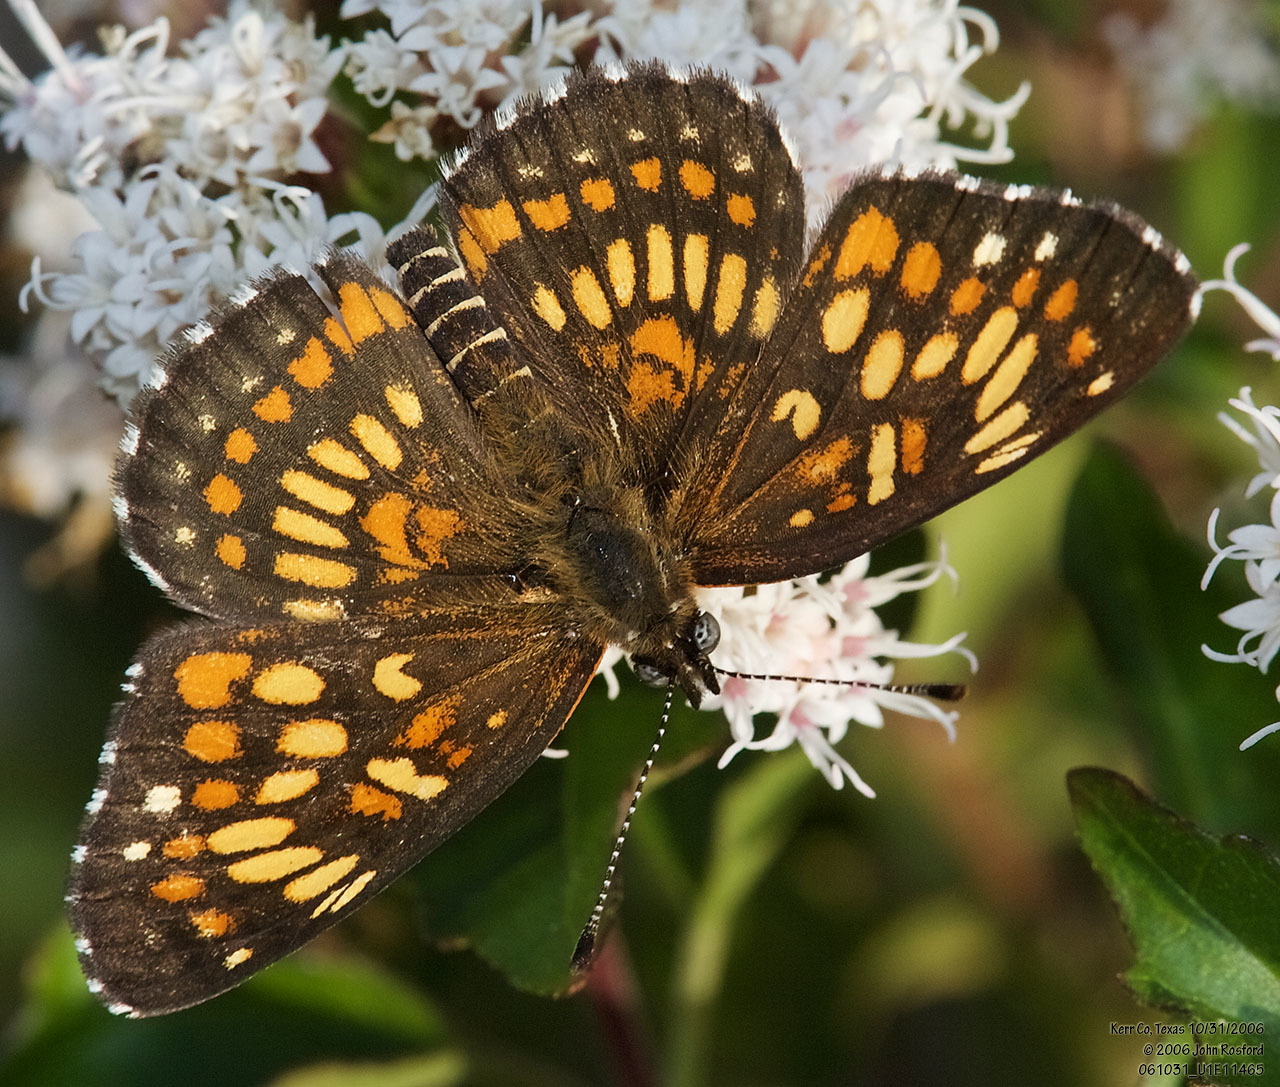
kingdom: Animalia
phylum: Arthropoda
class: Insecta
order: Lepidoptera
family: Nymphalidae
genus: Thessalia
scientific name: Thessalia theona
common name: Nymphalid moth
